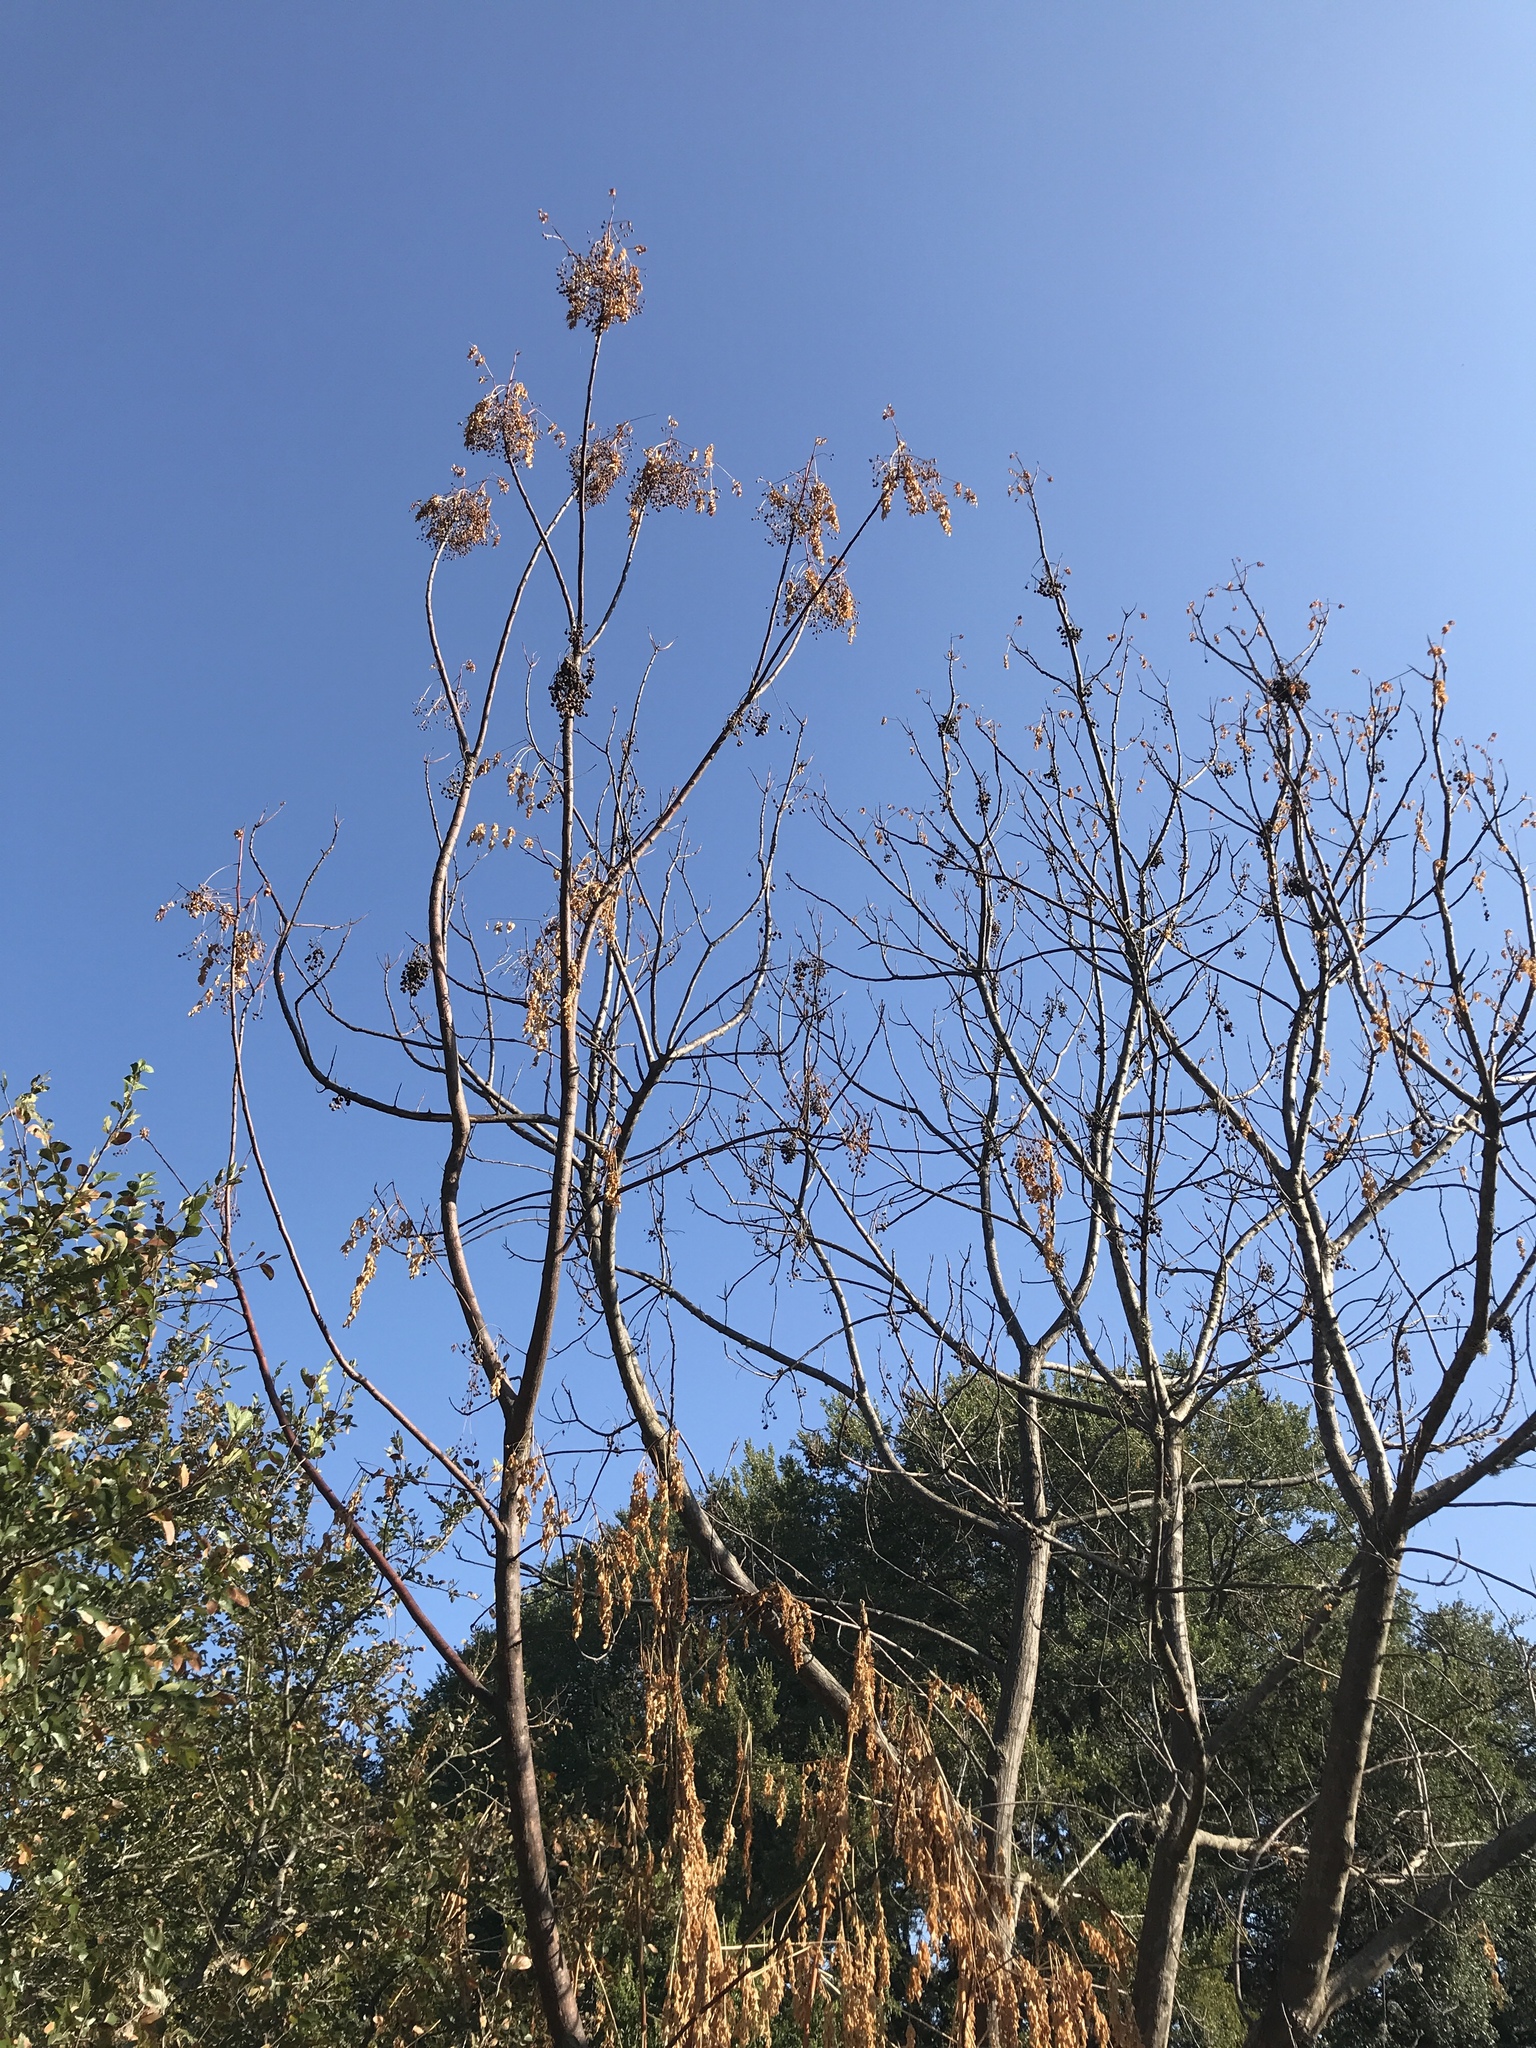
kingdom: Plantae
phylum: Tracheophyta
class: Magnoliopsida
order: Sapindales
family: Meliaceae
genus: Melia
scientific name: Melia azedarach
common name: Chinaberrytree
